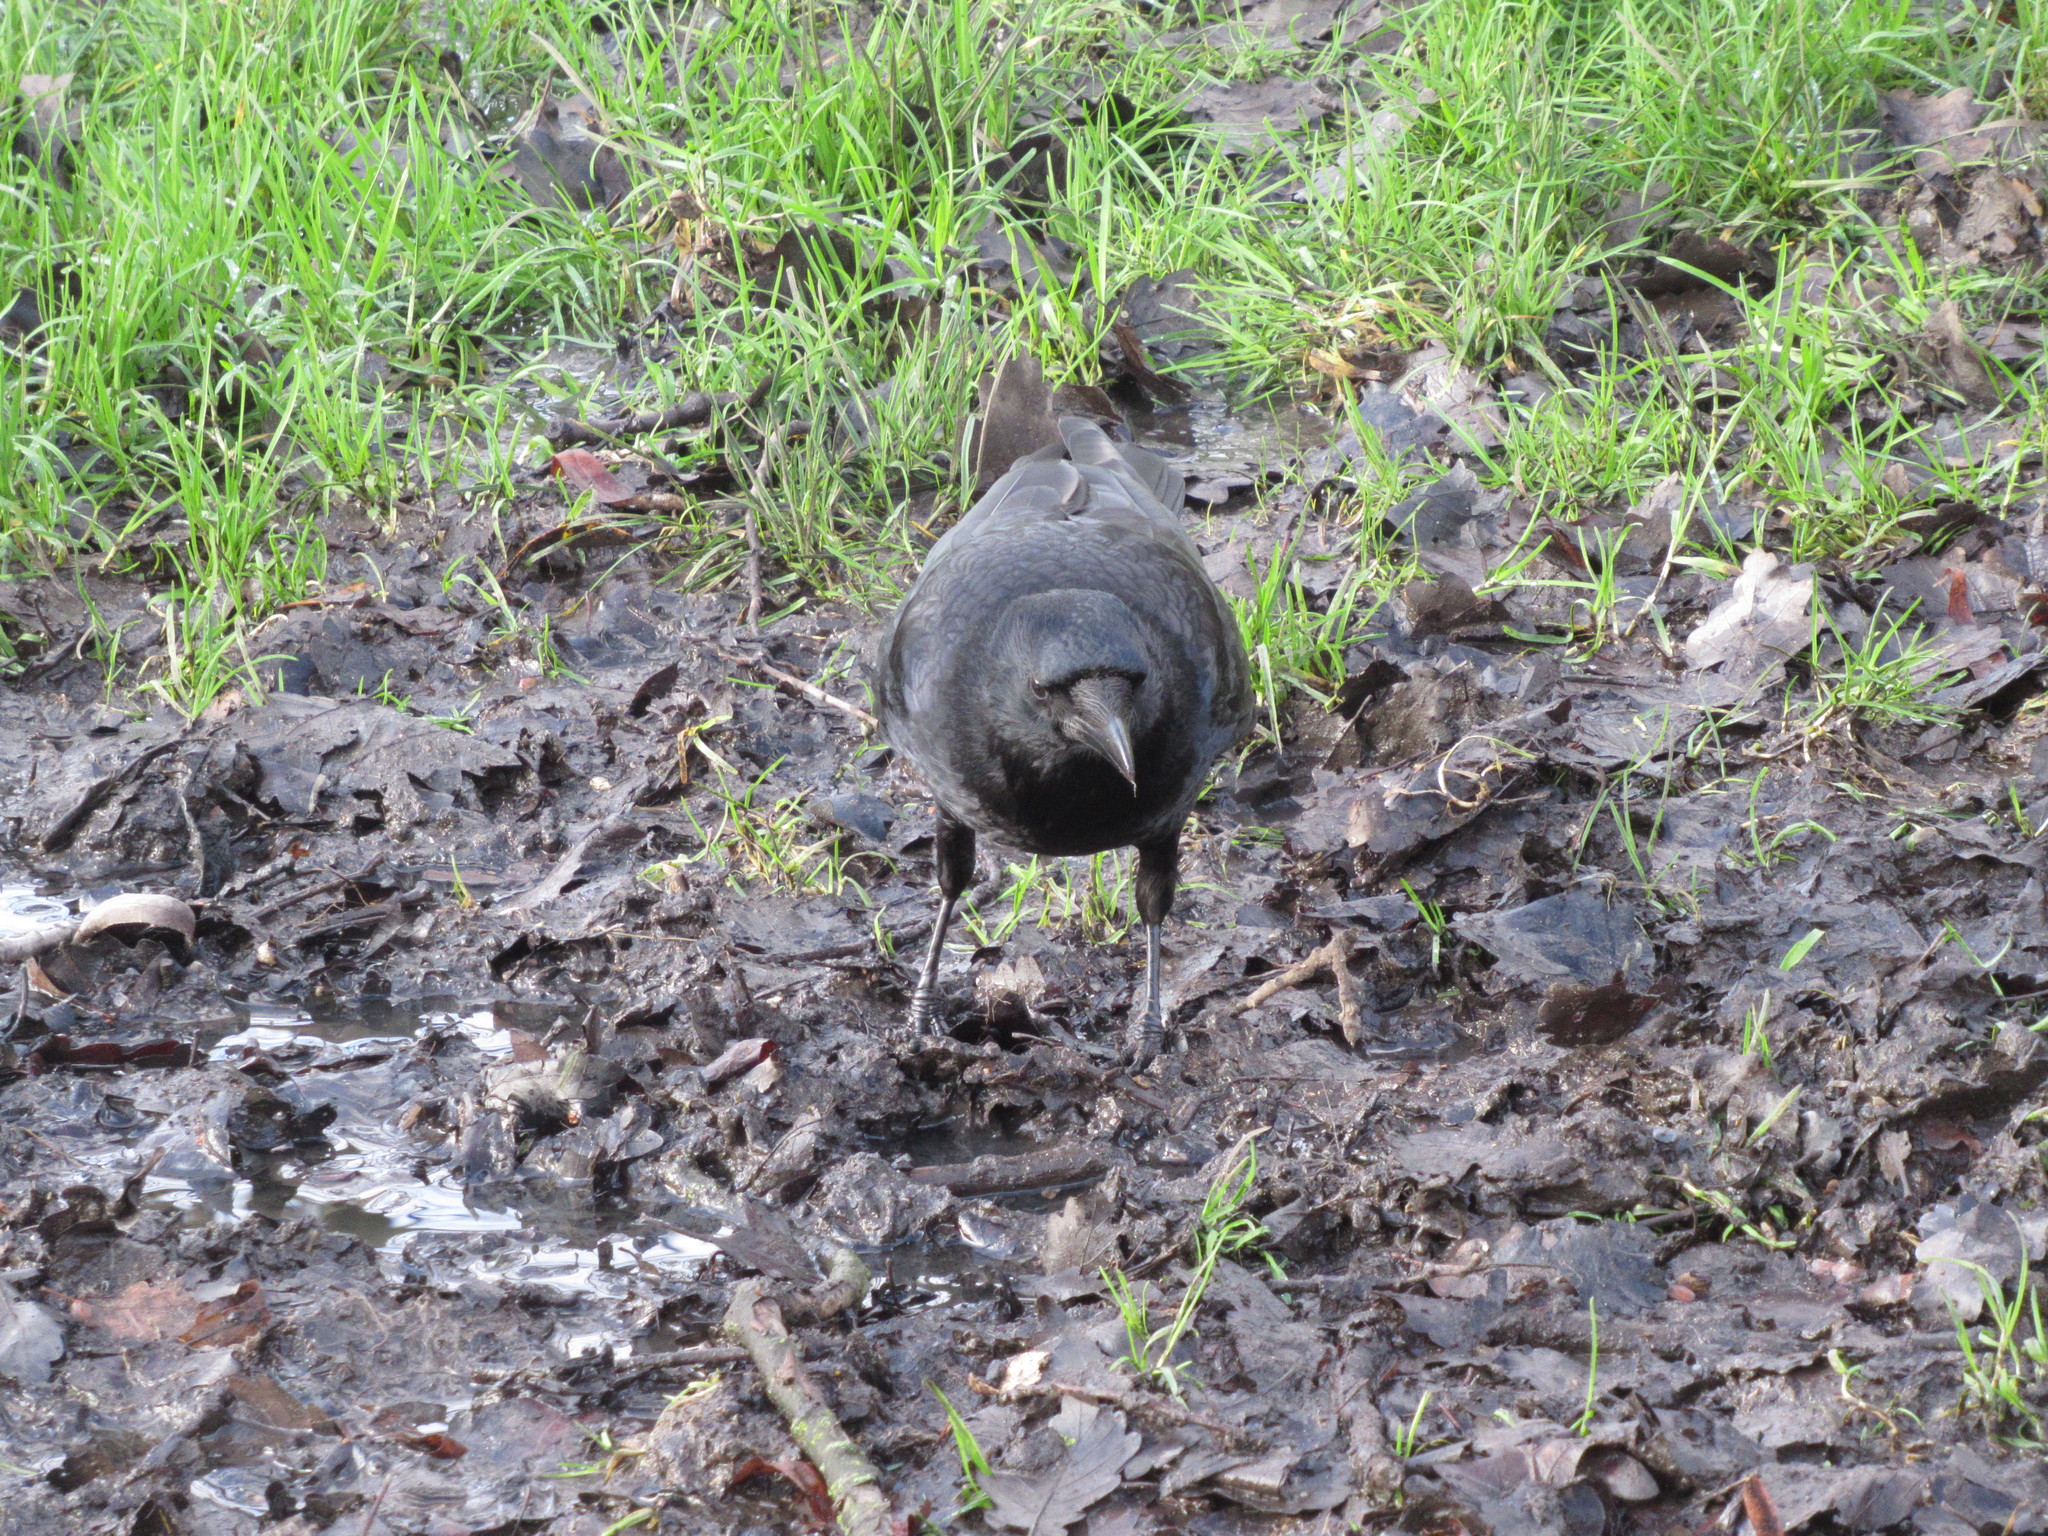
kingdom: Animalia
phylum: Chordata
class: Aves
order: Passeriformes
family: Corvidae
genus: Corvus
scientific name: Corvus corone
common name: Carrion crow
